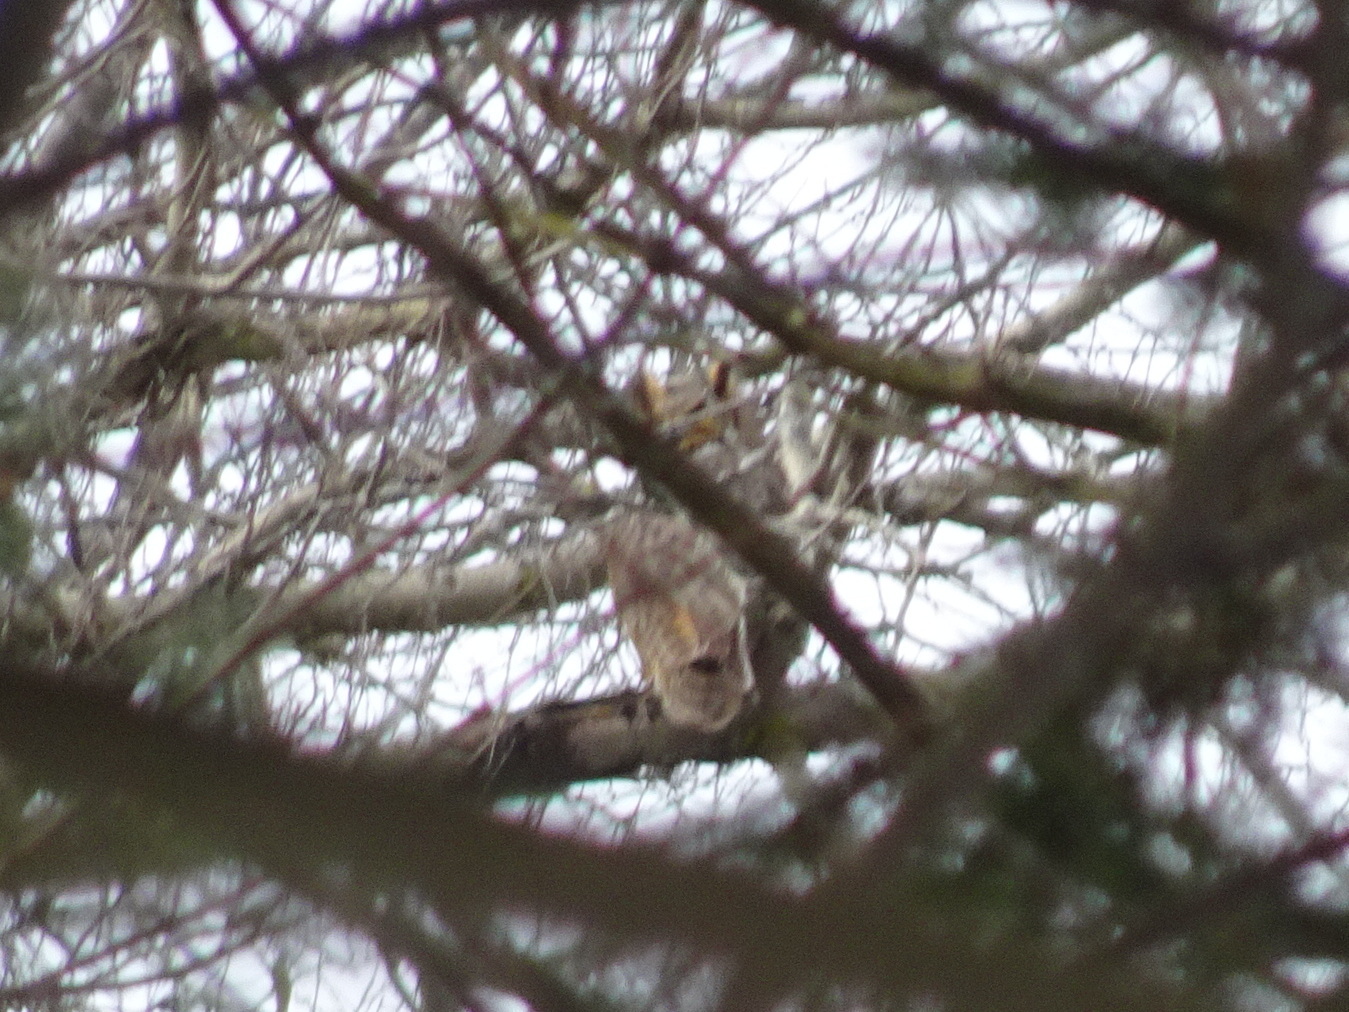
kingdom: Animalia
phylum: Chordata
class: Aves
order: Strigiformes
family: Strigidae
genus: Bubo
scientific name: Bubo virginianus
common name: Great horned owl
